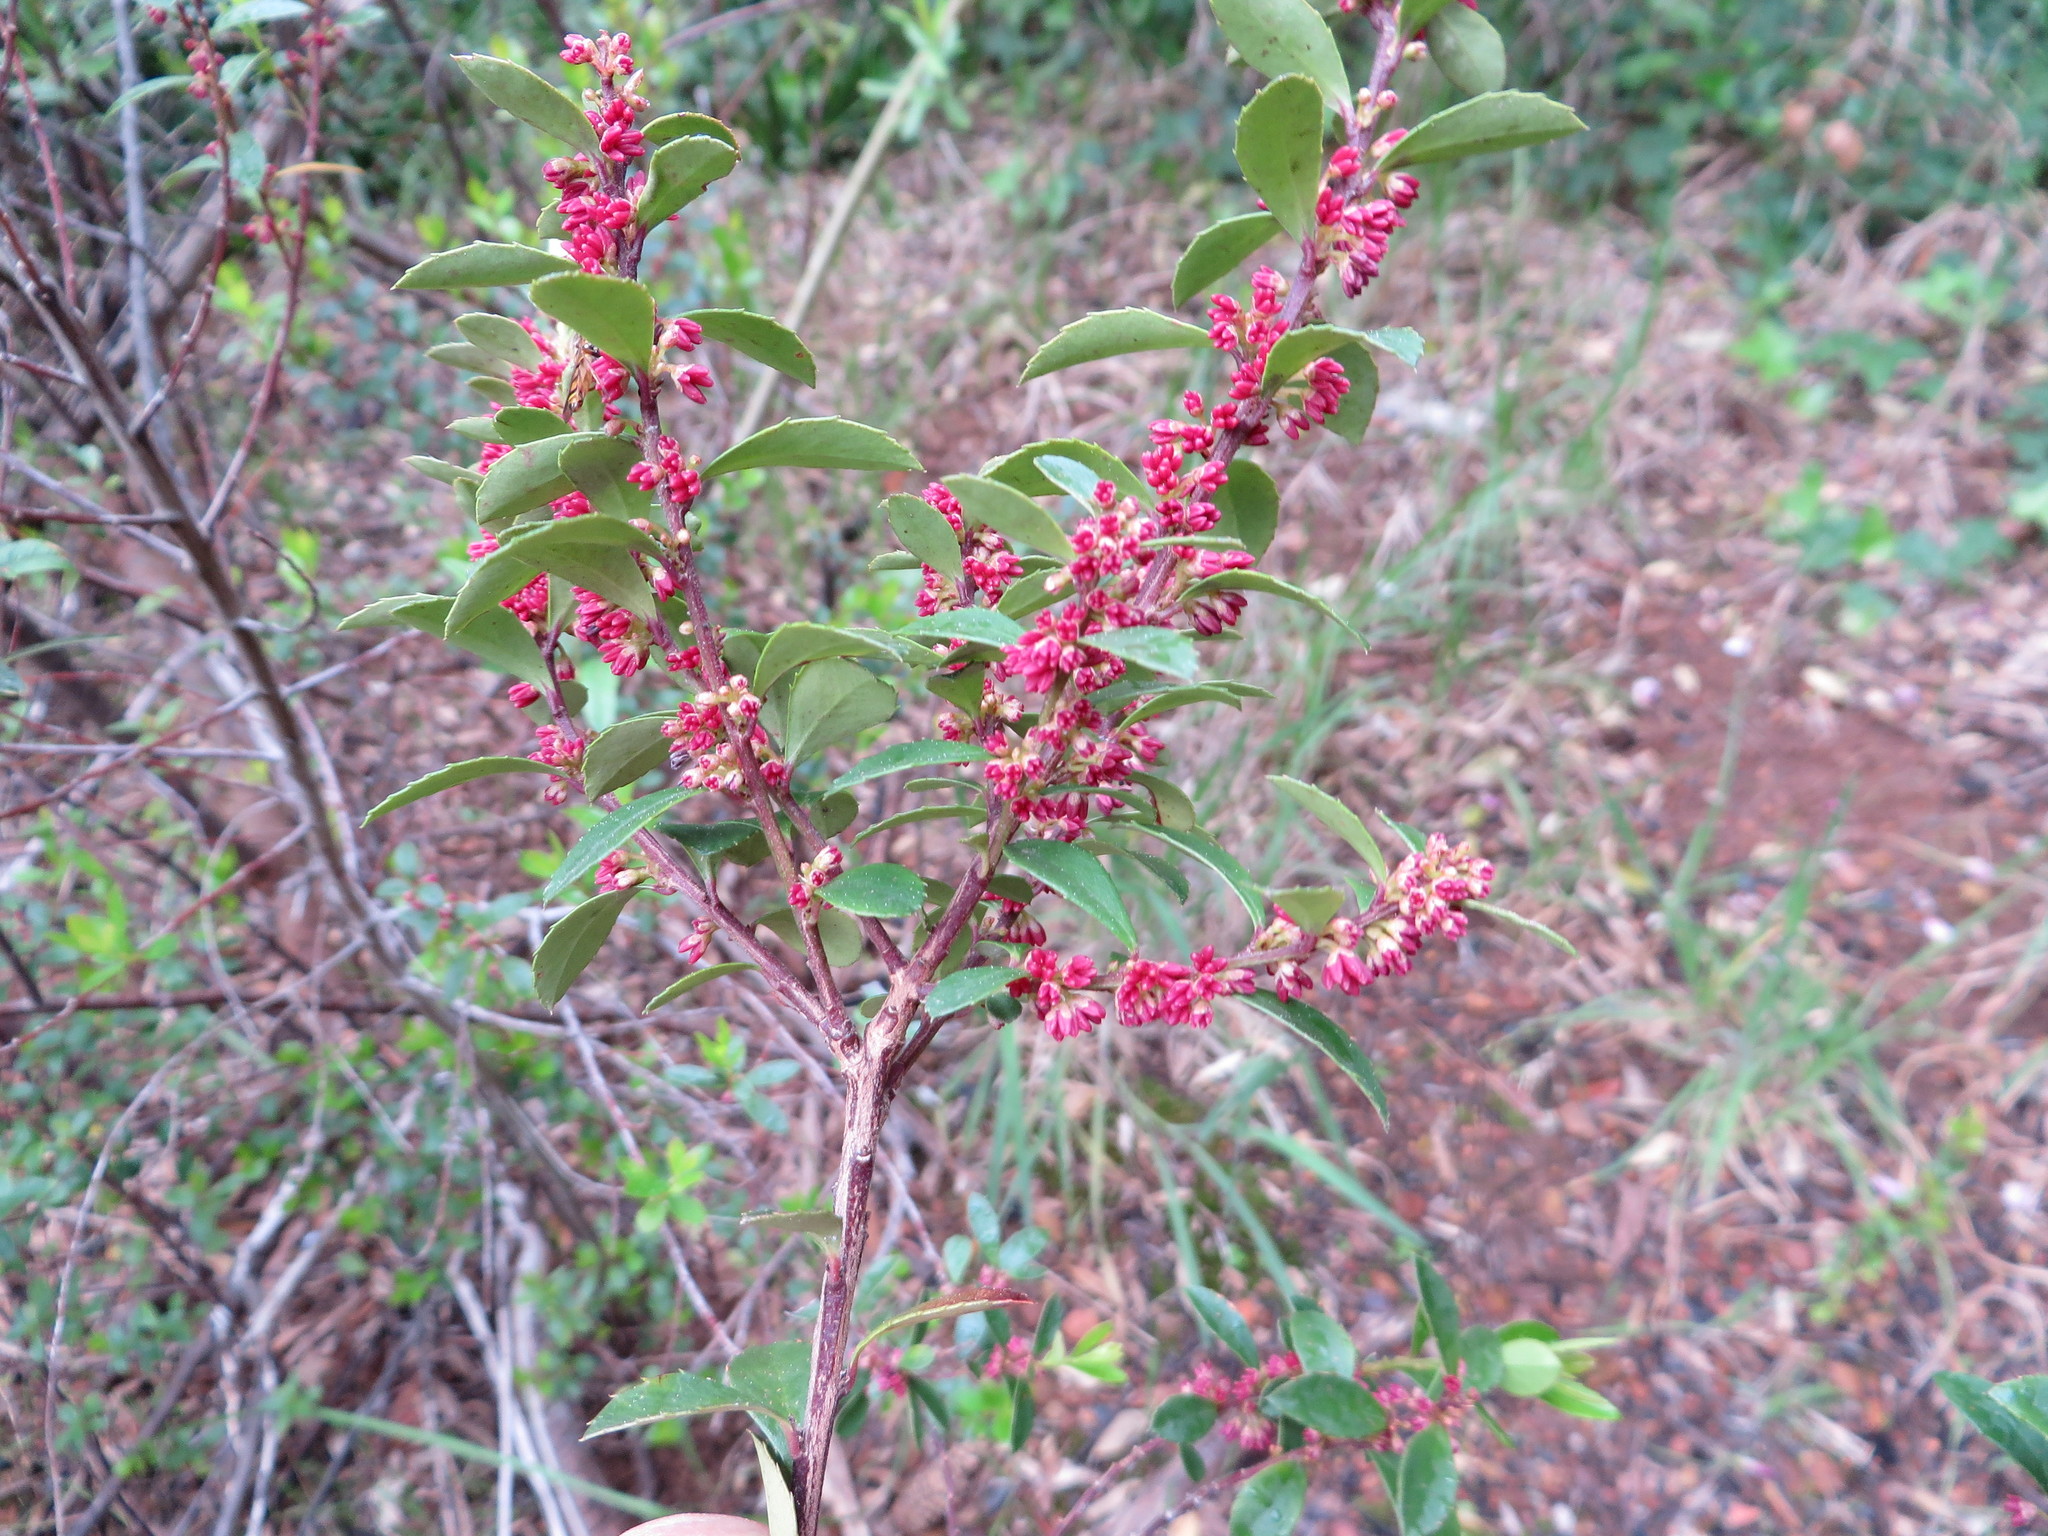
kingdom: Plantae
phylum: Tracheophyta
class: Magnoliopsida
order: Ericales
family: Primulaceae
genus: Myrsine
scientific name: Myrsine africana
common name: African-boxwood
